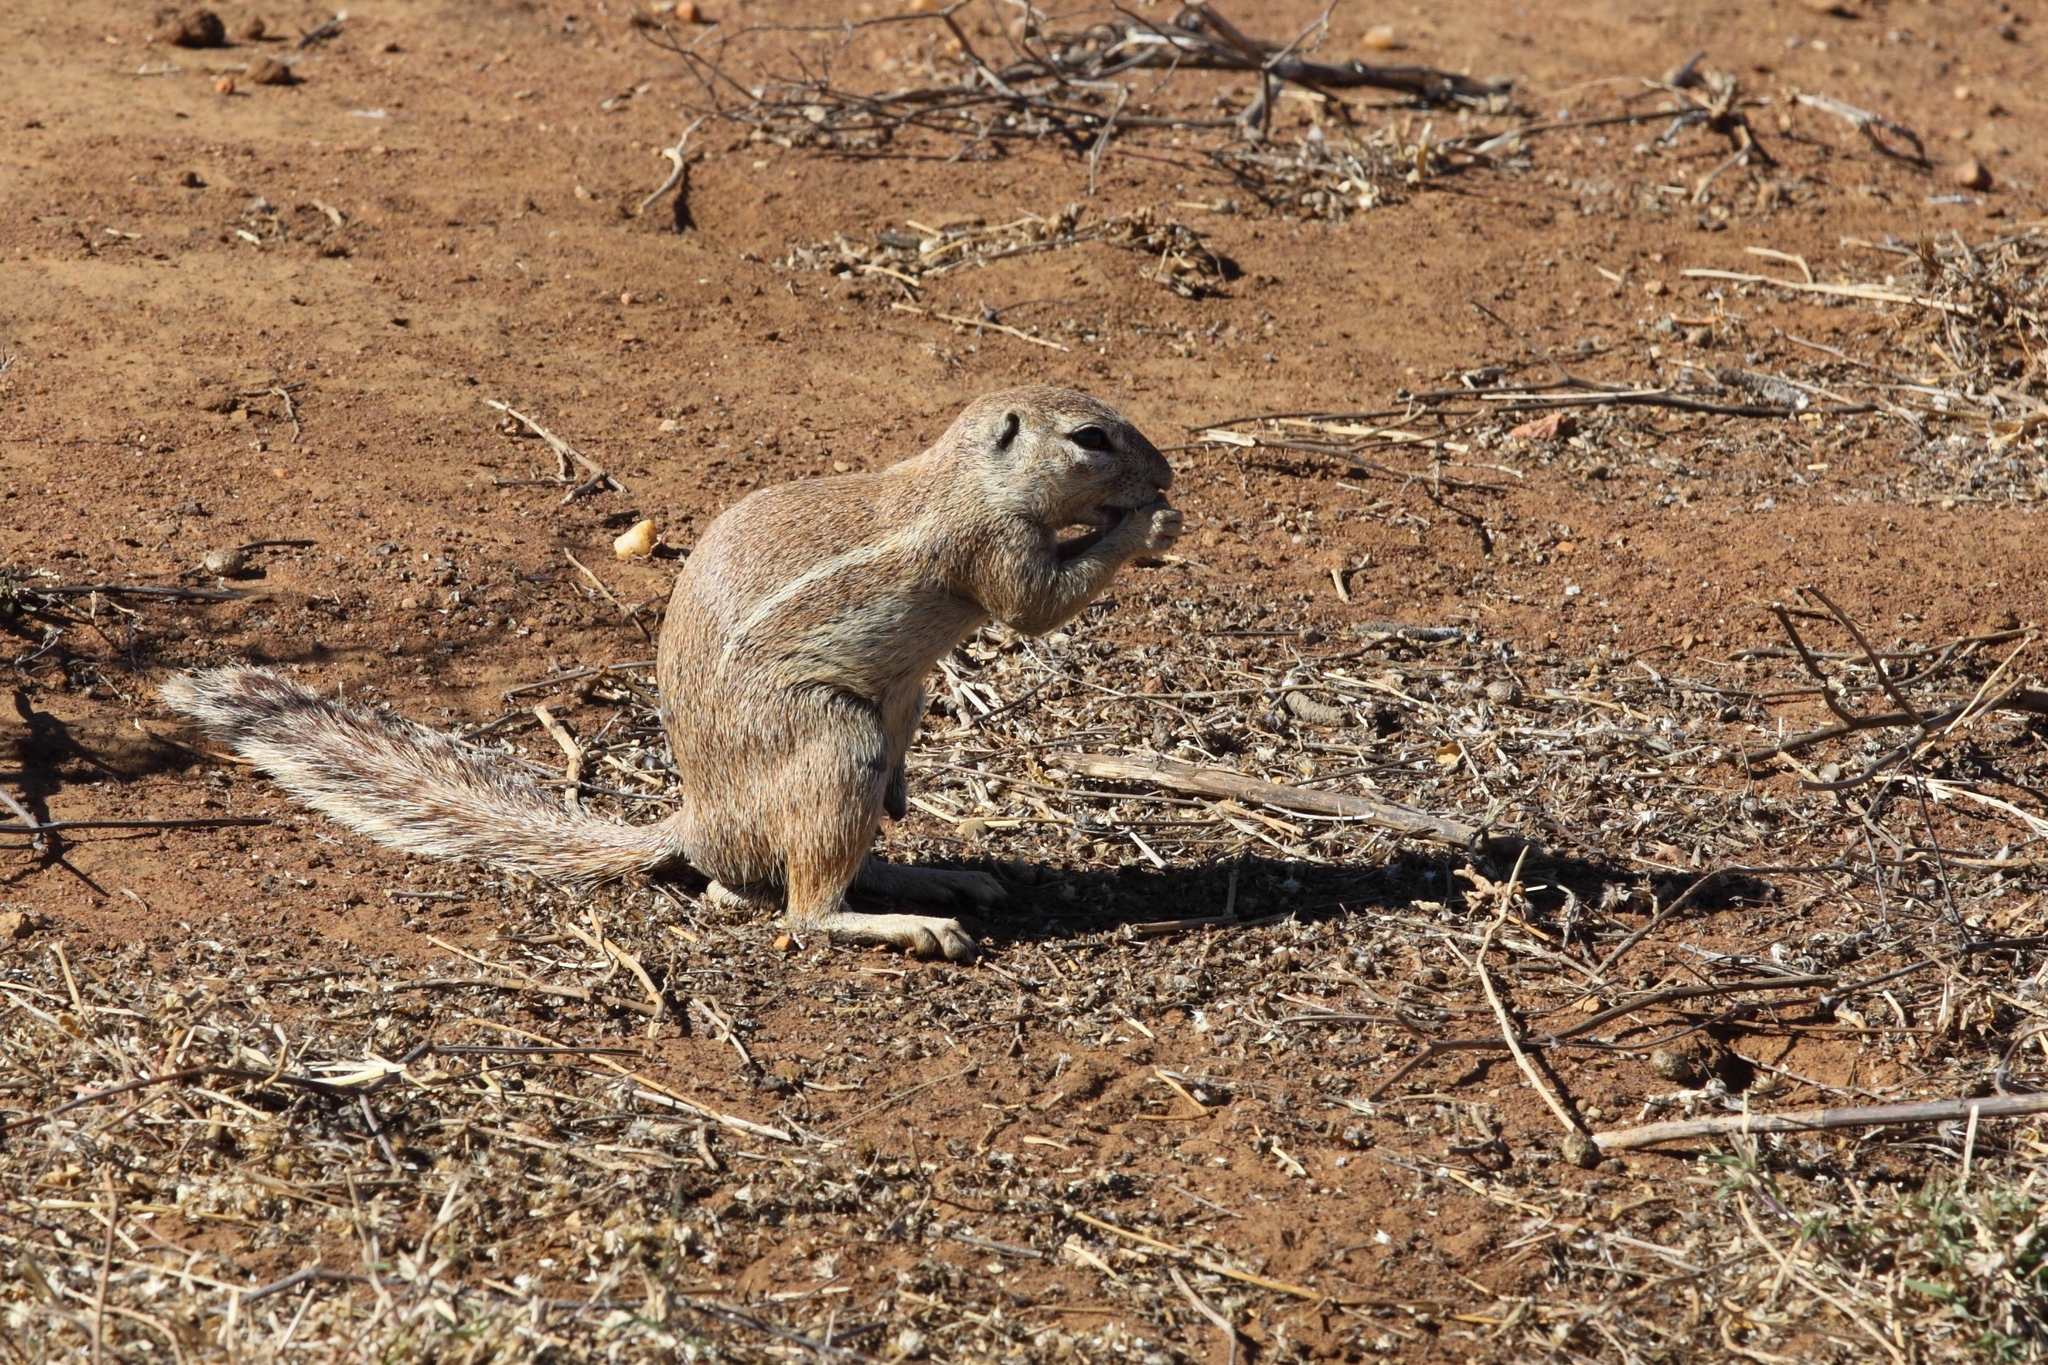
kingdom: Animalia
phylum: Chordata
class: Mammalia
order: Rodentia
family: Sciuridae
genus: Xerus
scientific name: Xerus inauris
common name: South african ground squirrel
